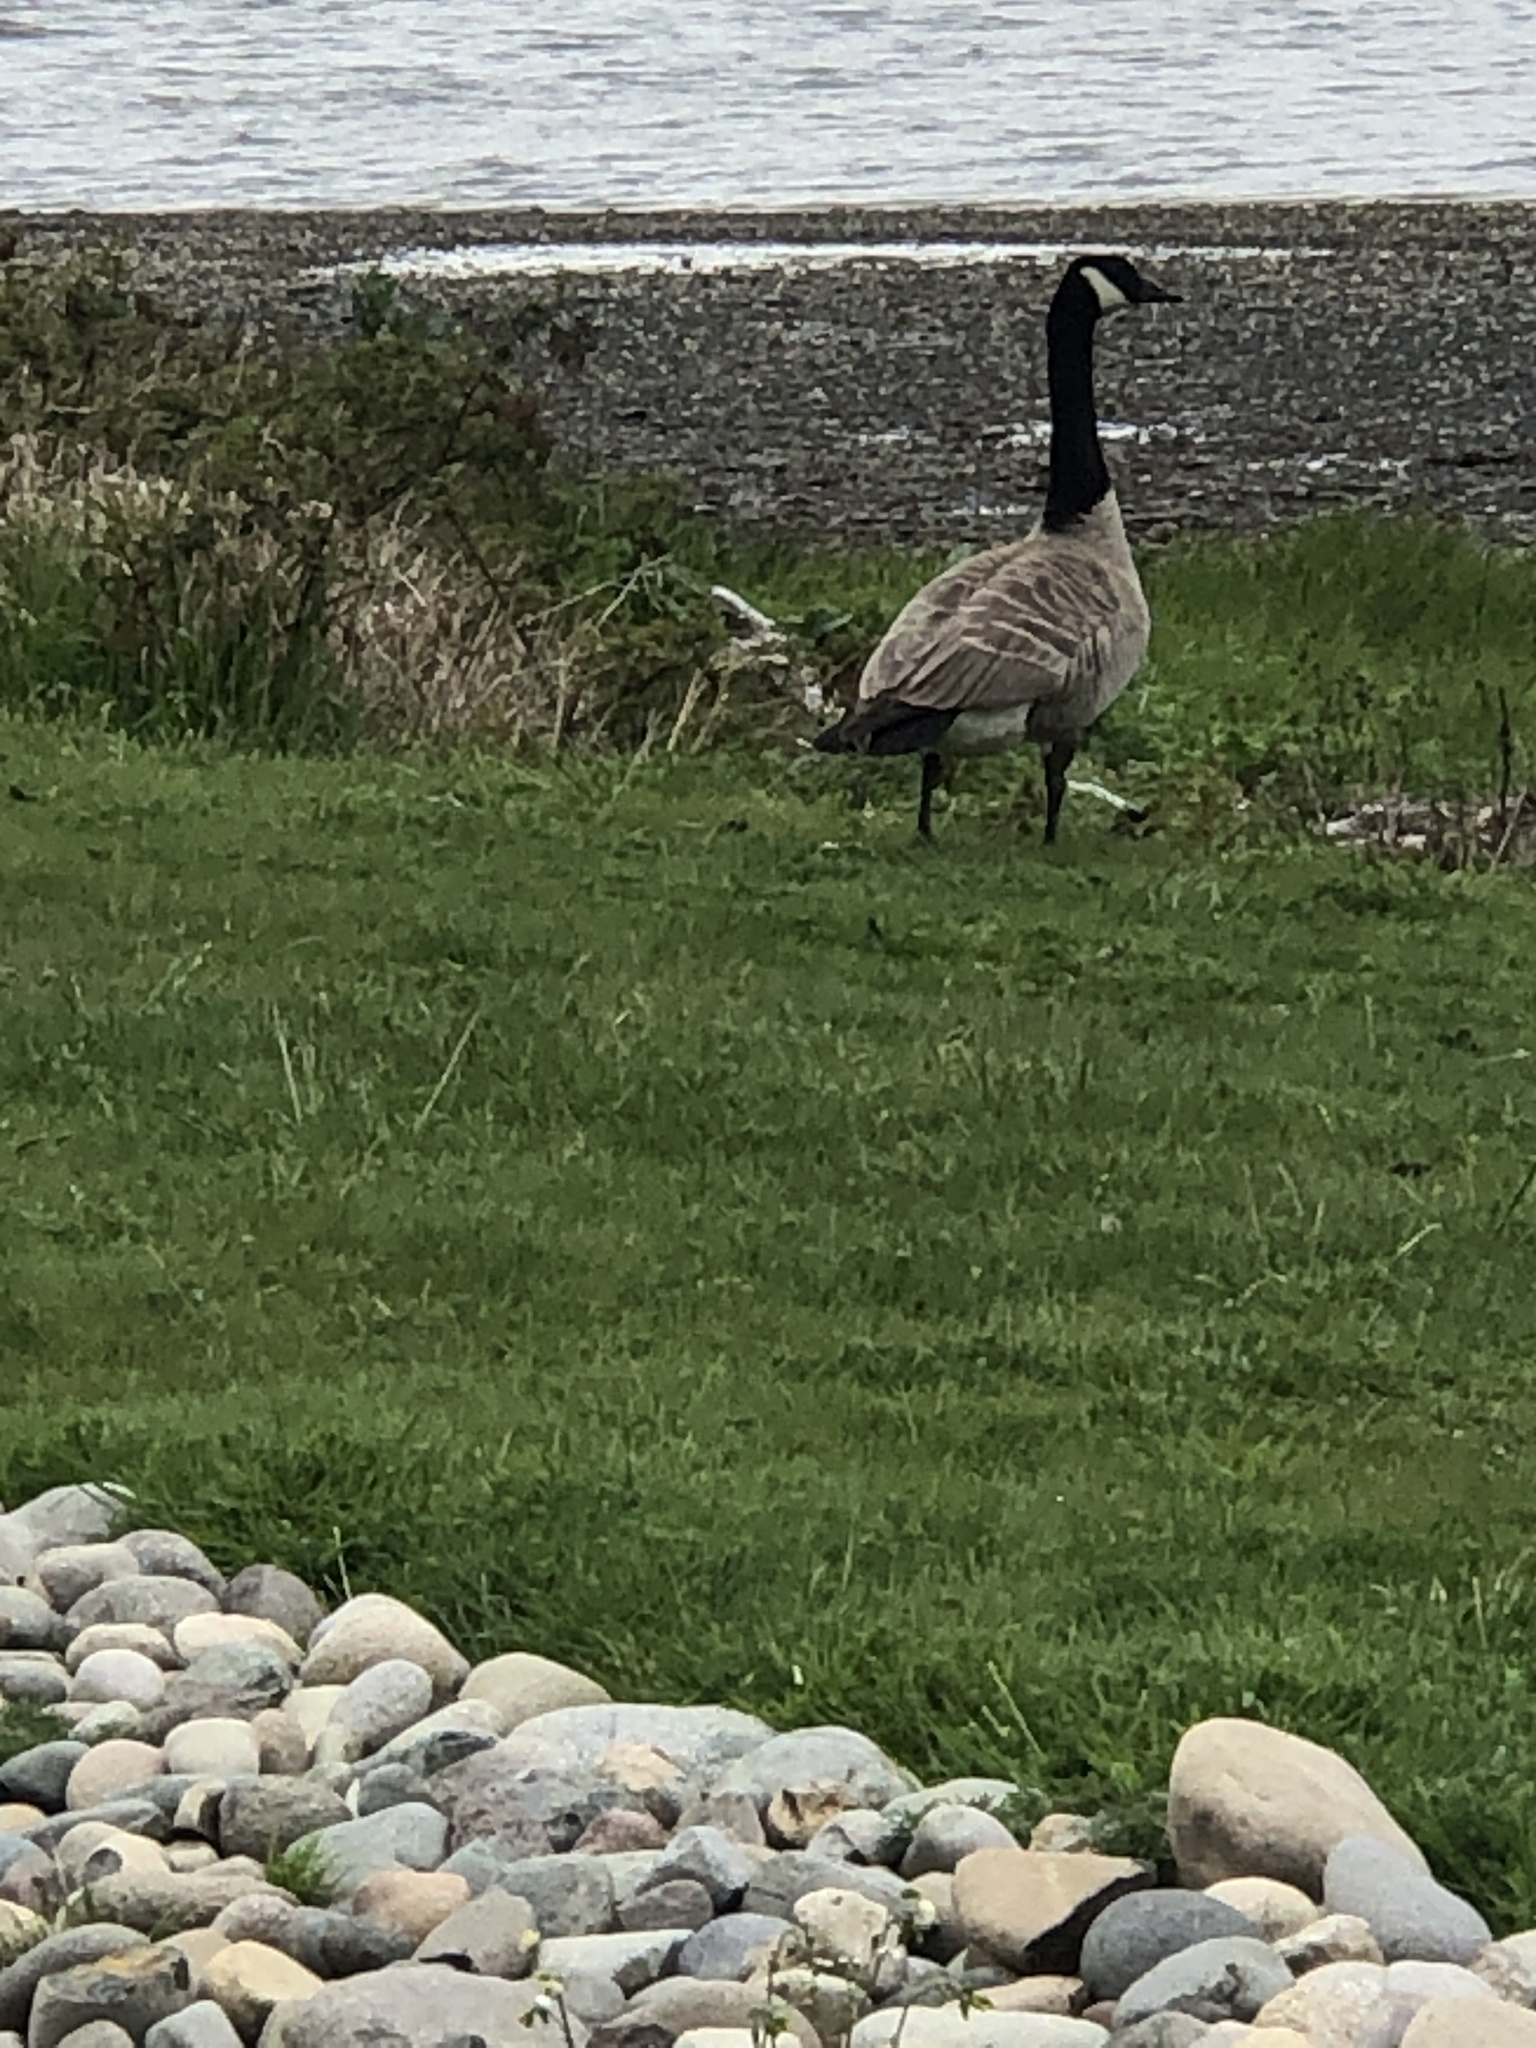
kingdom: Animalia
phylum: Chordata
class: Aves
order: Anseriformes
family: Anatidae
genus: Branta
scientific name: Branta canadensis
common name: Canada goose
